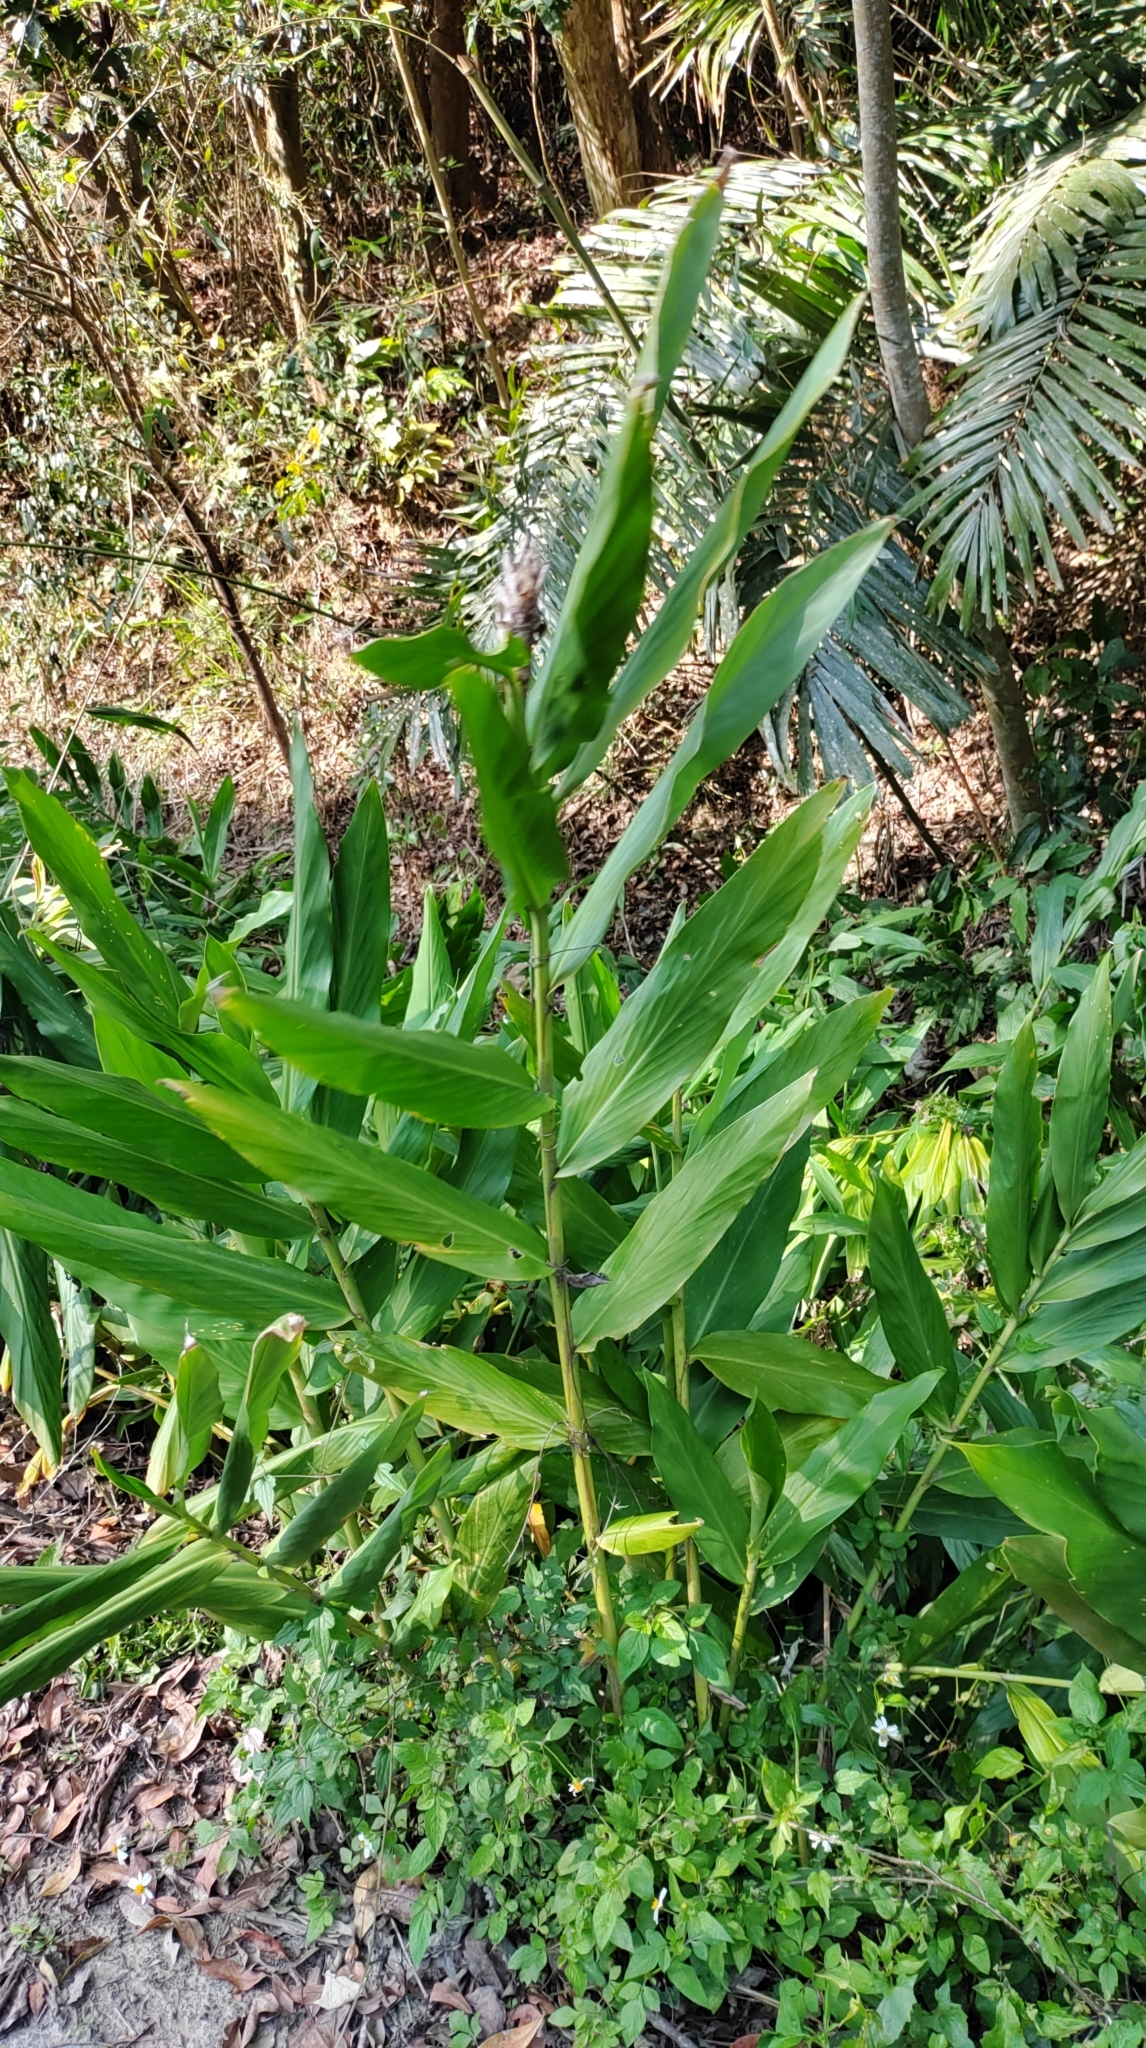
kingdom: Plantae
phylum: Tracheophyta
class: Liliopsida
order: Zingiberales
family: Zingiberaceae
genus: Hedychium
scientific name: Hedychium coronarium
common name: White garland-lily
